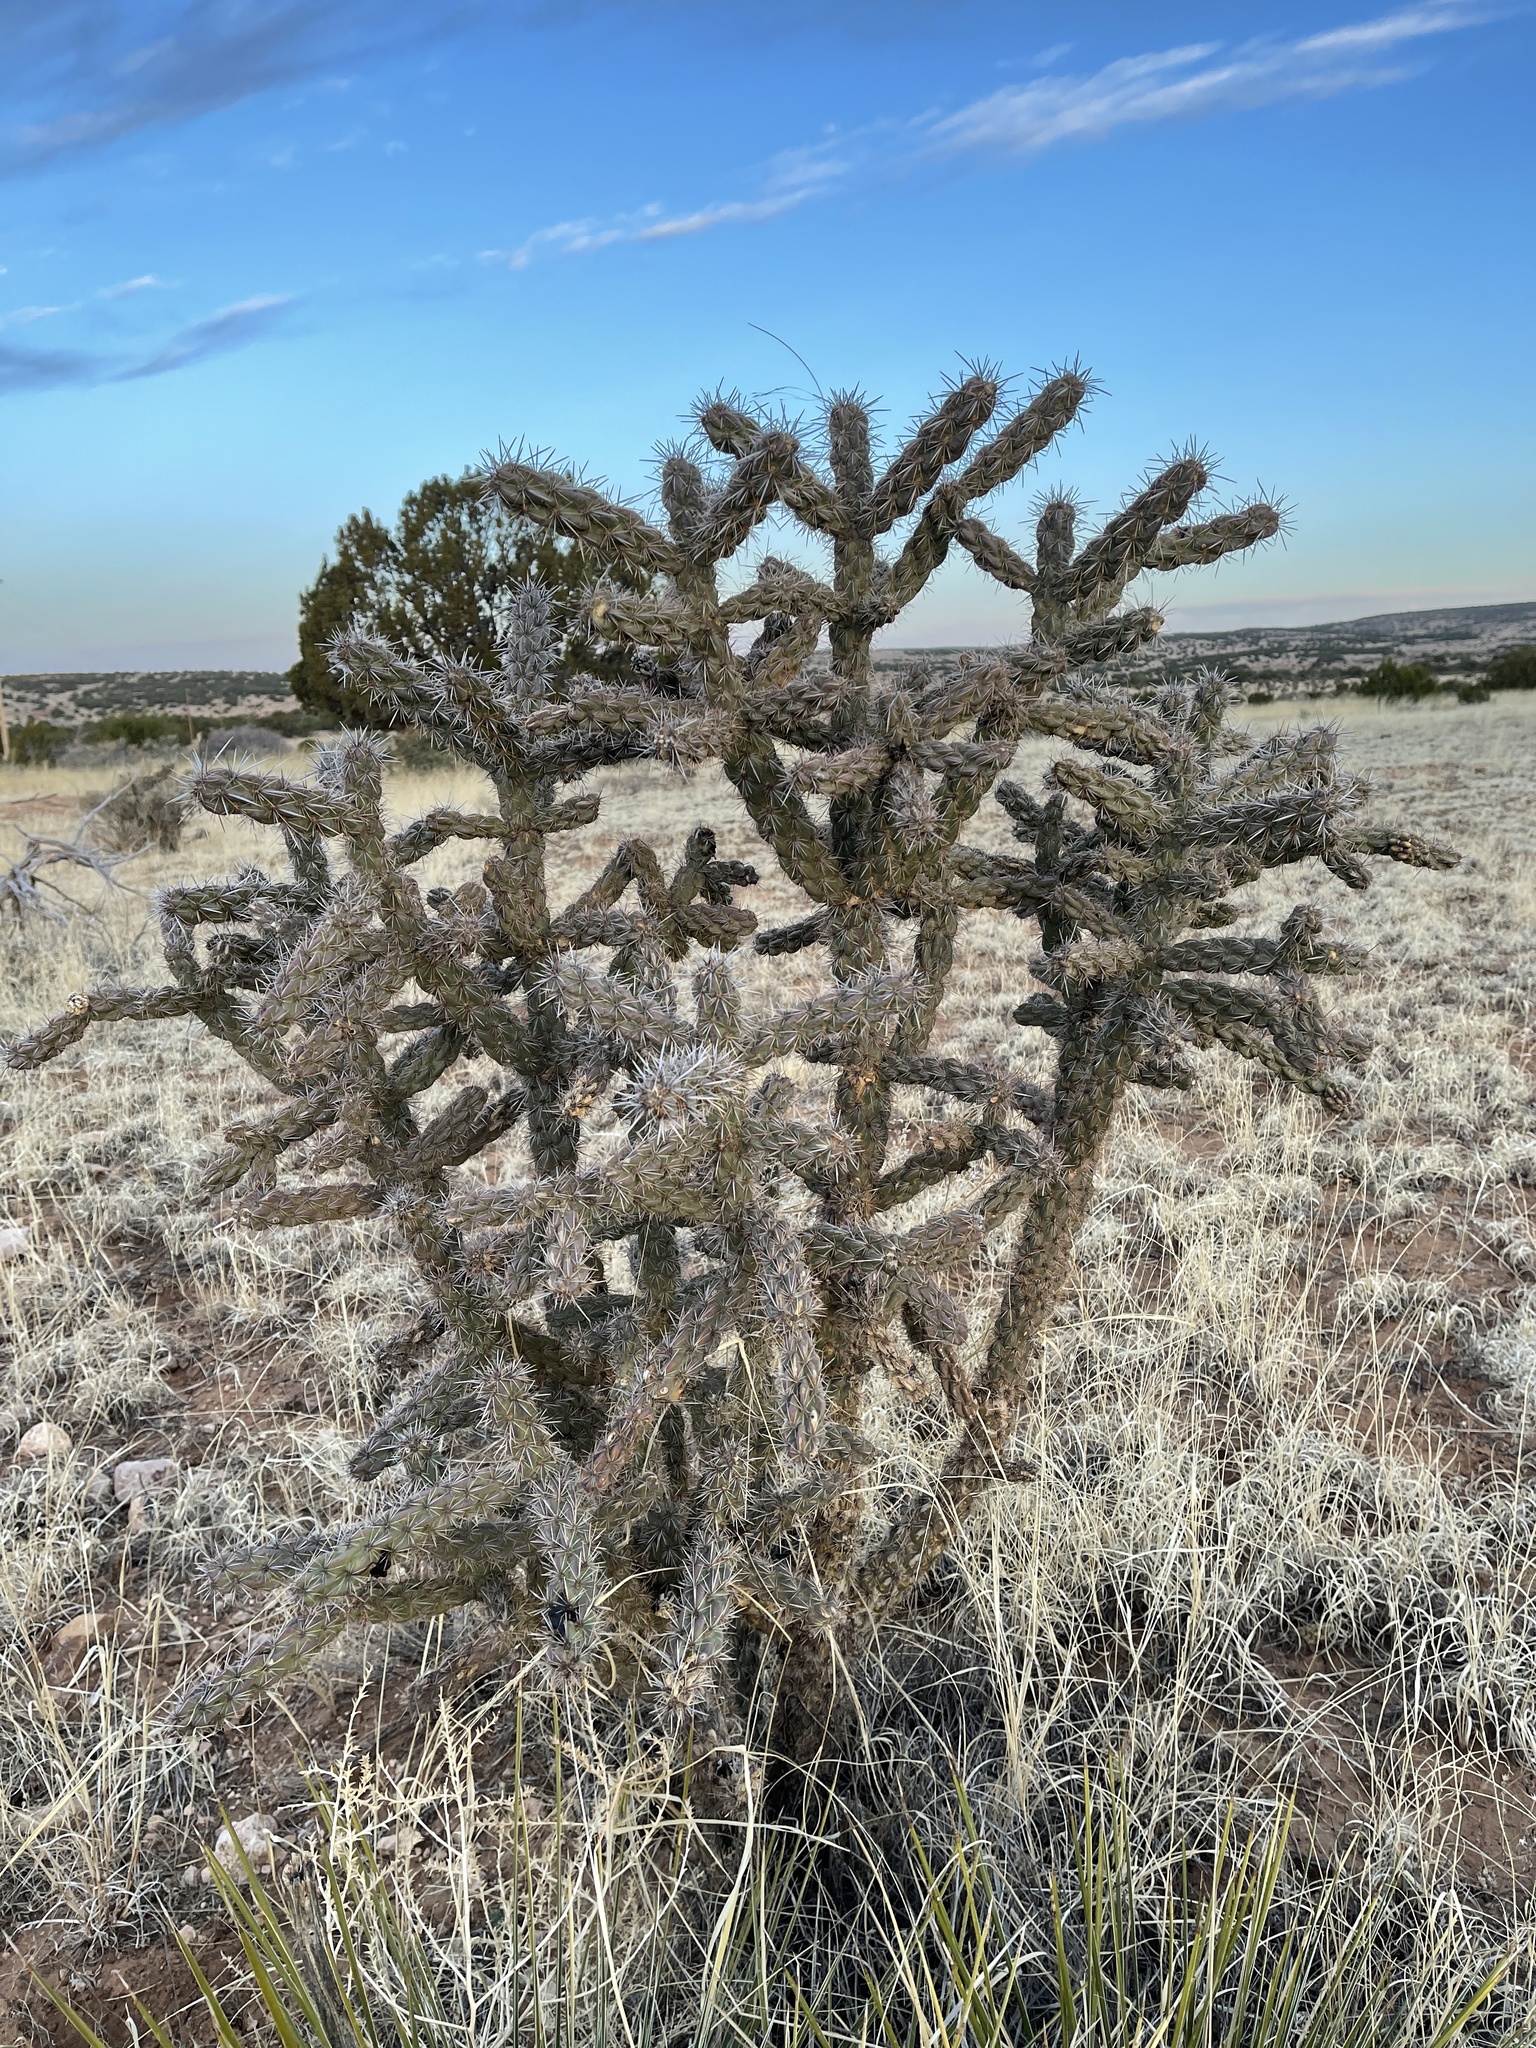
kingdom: Plantae
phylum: Tracheophyta
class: Magnoliopsida
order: Caryophyllales
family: Cactaceae
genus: Cylindropuntia
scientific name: Cylindropuntia imbricata
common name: Candelabrum cactus
